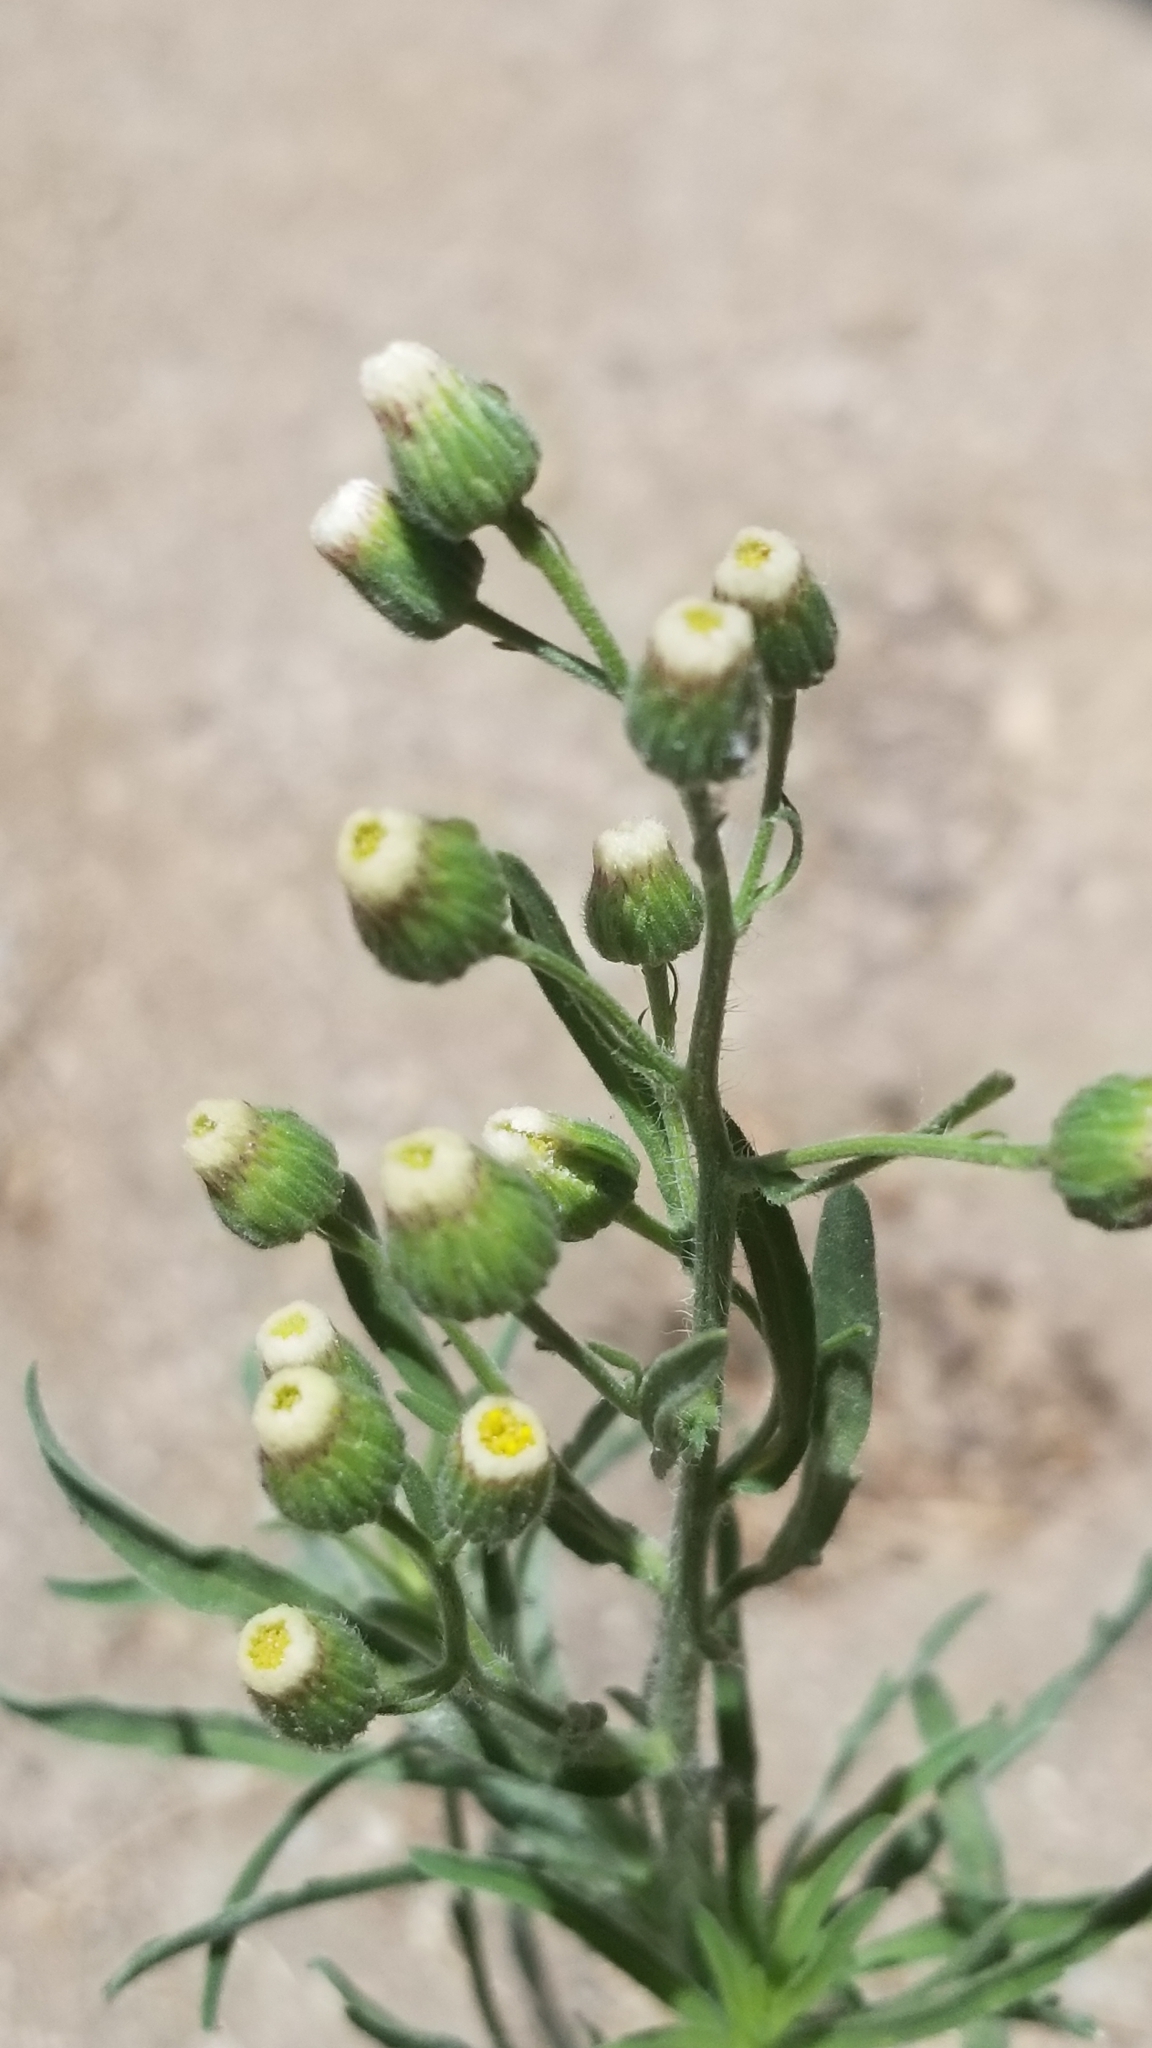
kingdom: Plantae
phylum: Tracheophyta
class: Magnoliopsida
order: Asterales
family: Asteraceae
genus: Erigeron
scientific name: Erigeron bonariensis
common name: Argentine fleabane
